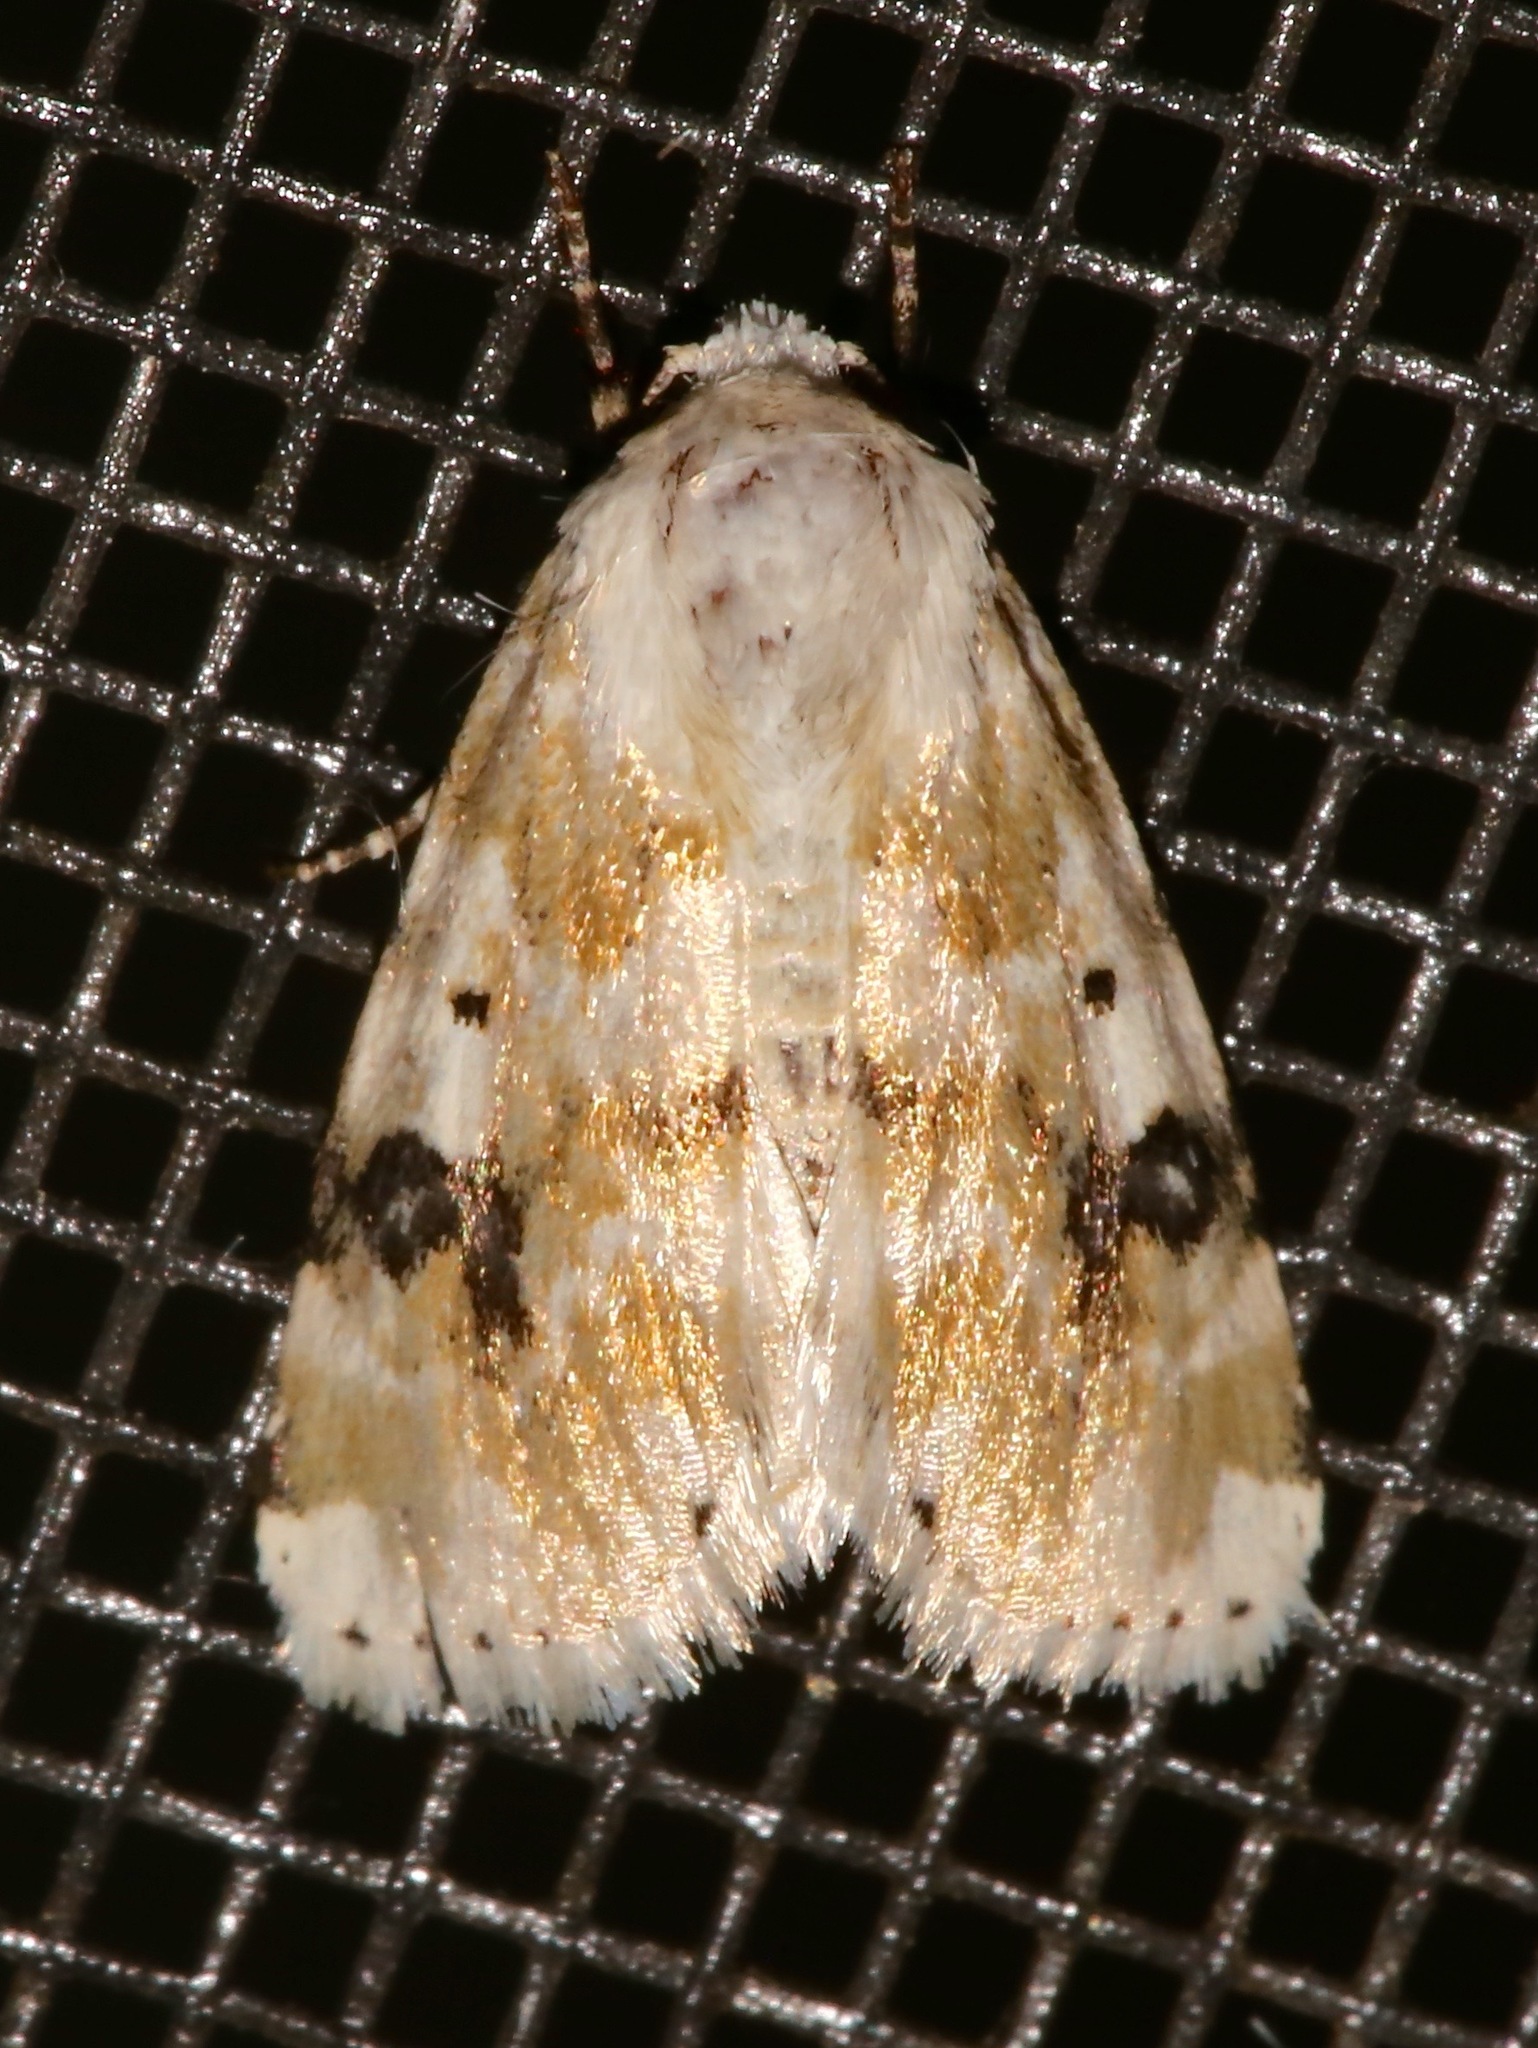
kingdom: Animalia
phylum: Arthropoda
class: Insecta
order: Lepidoptera
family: Noctuidae
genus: Schinia
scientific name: Schinia nundina
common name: Goldenrod flower moth
